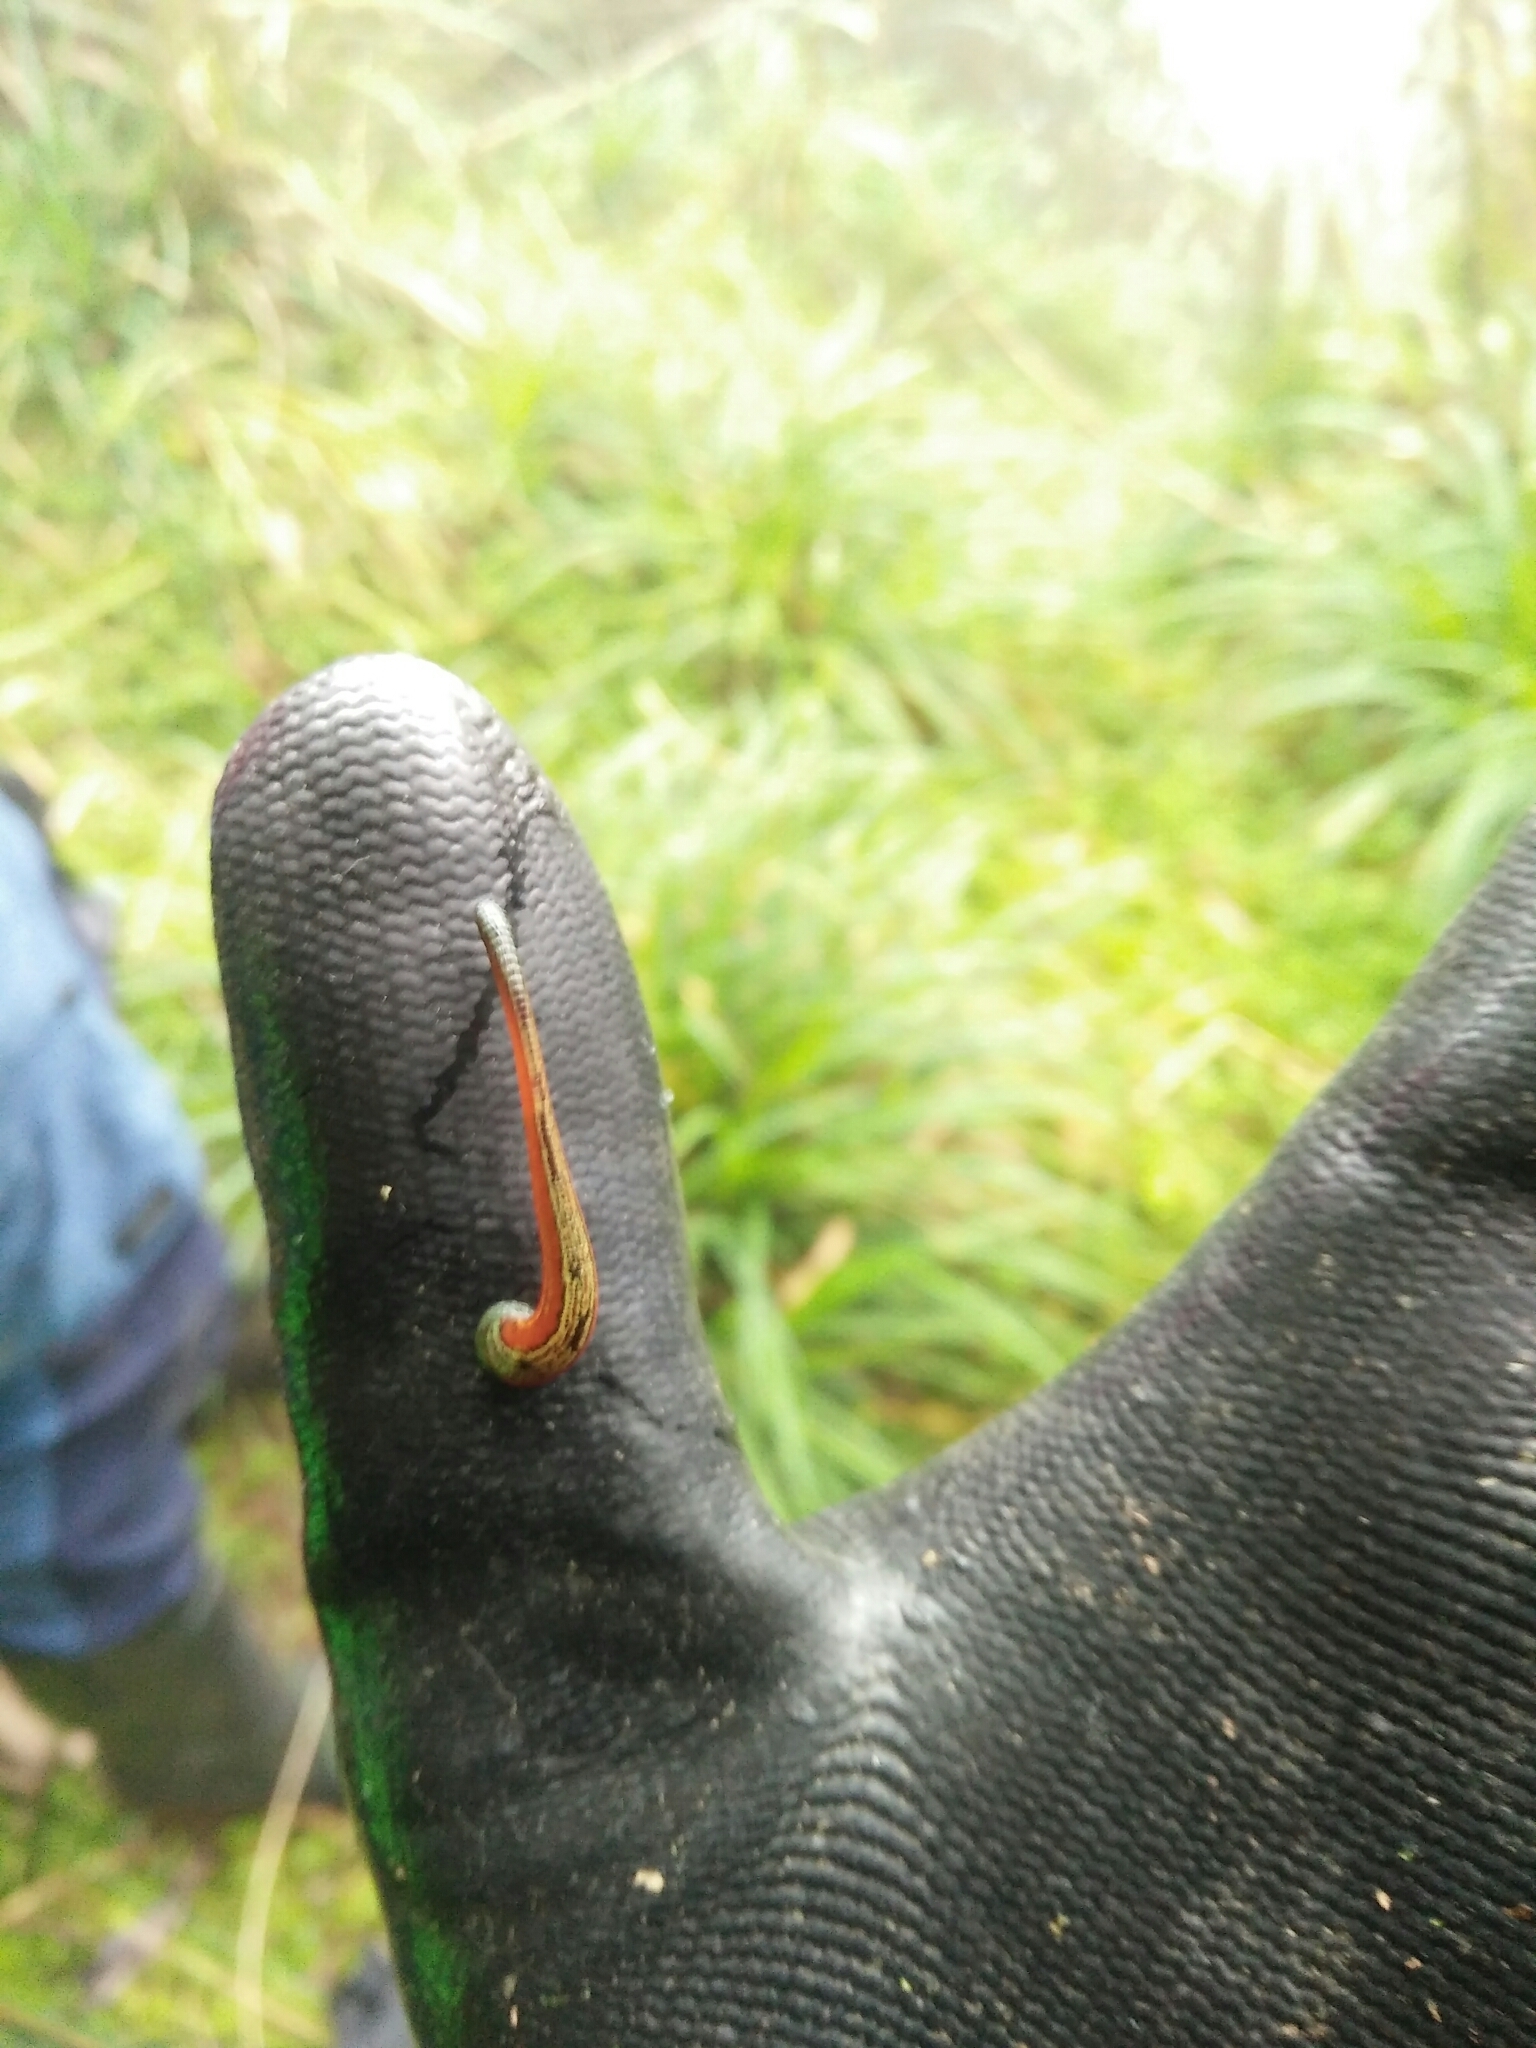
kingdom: Animalia
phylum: Annelida
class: Clitellata
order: Arhynchobdellida
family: Haemadipsidae
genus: Haemadipsa
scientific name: Haemadipsa picta
